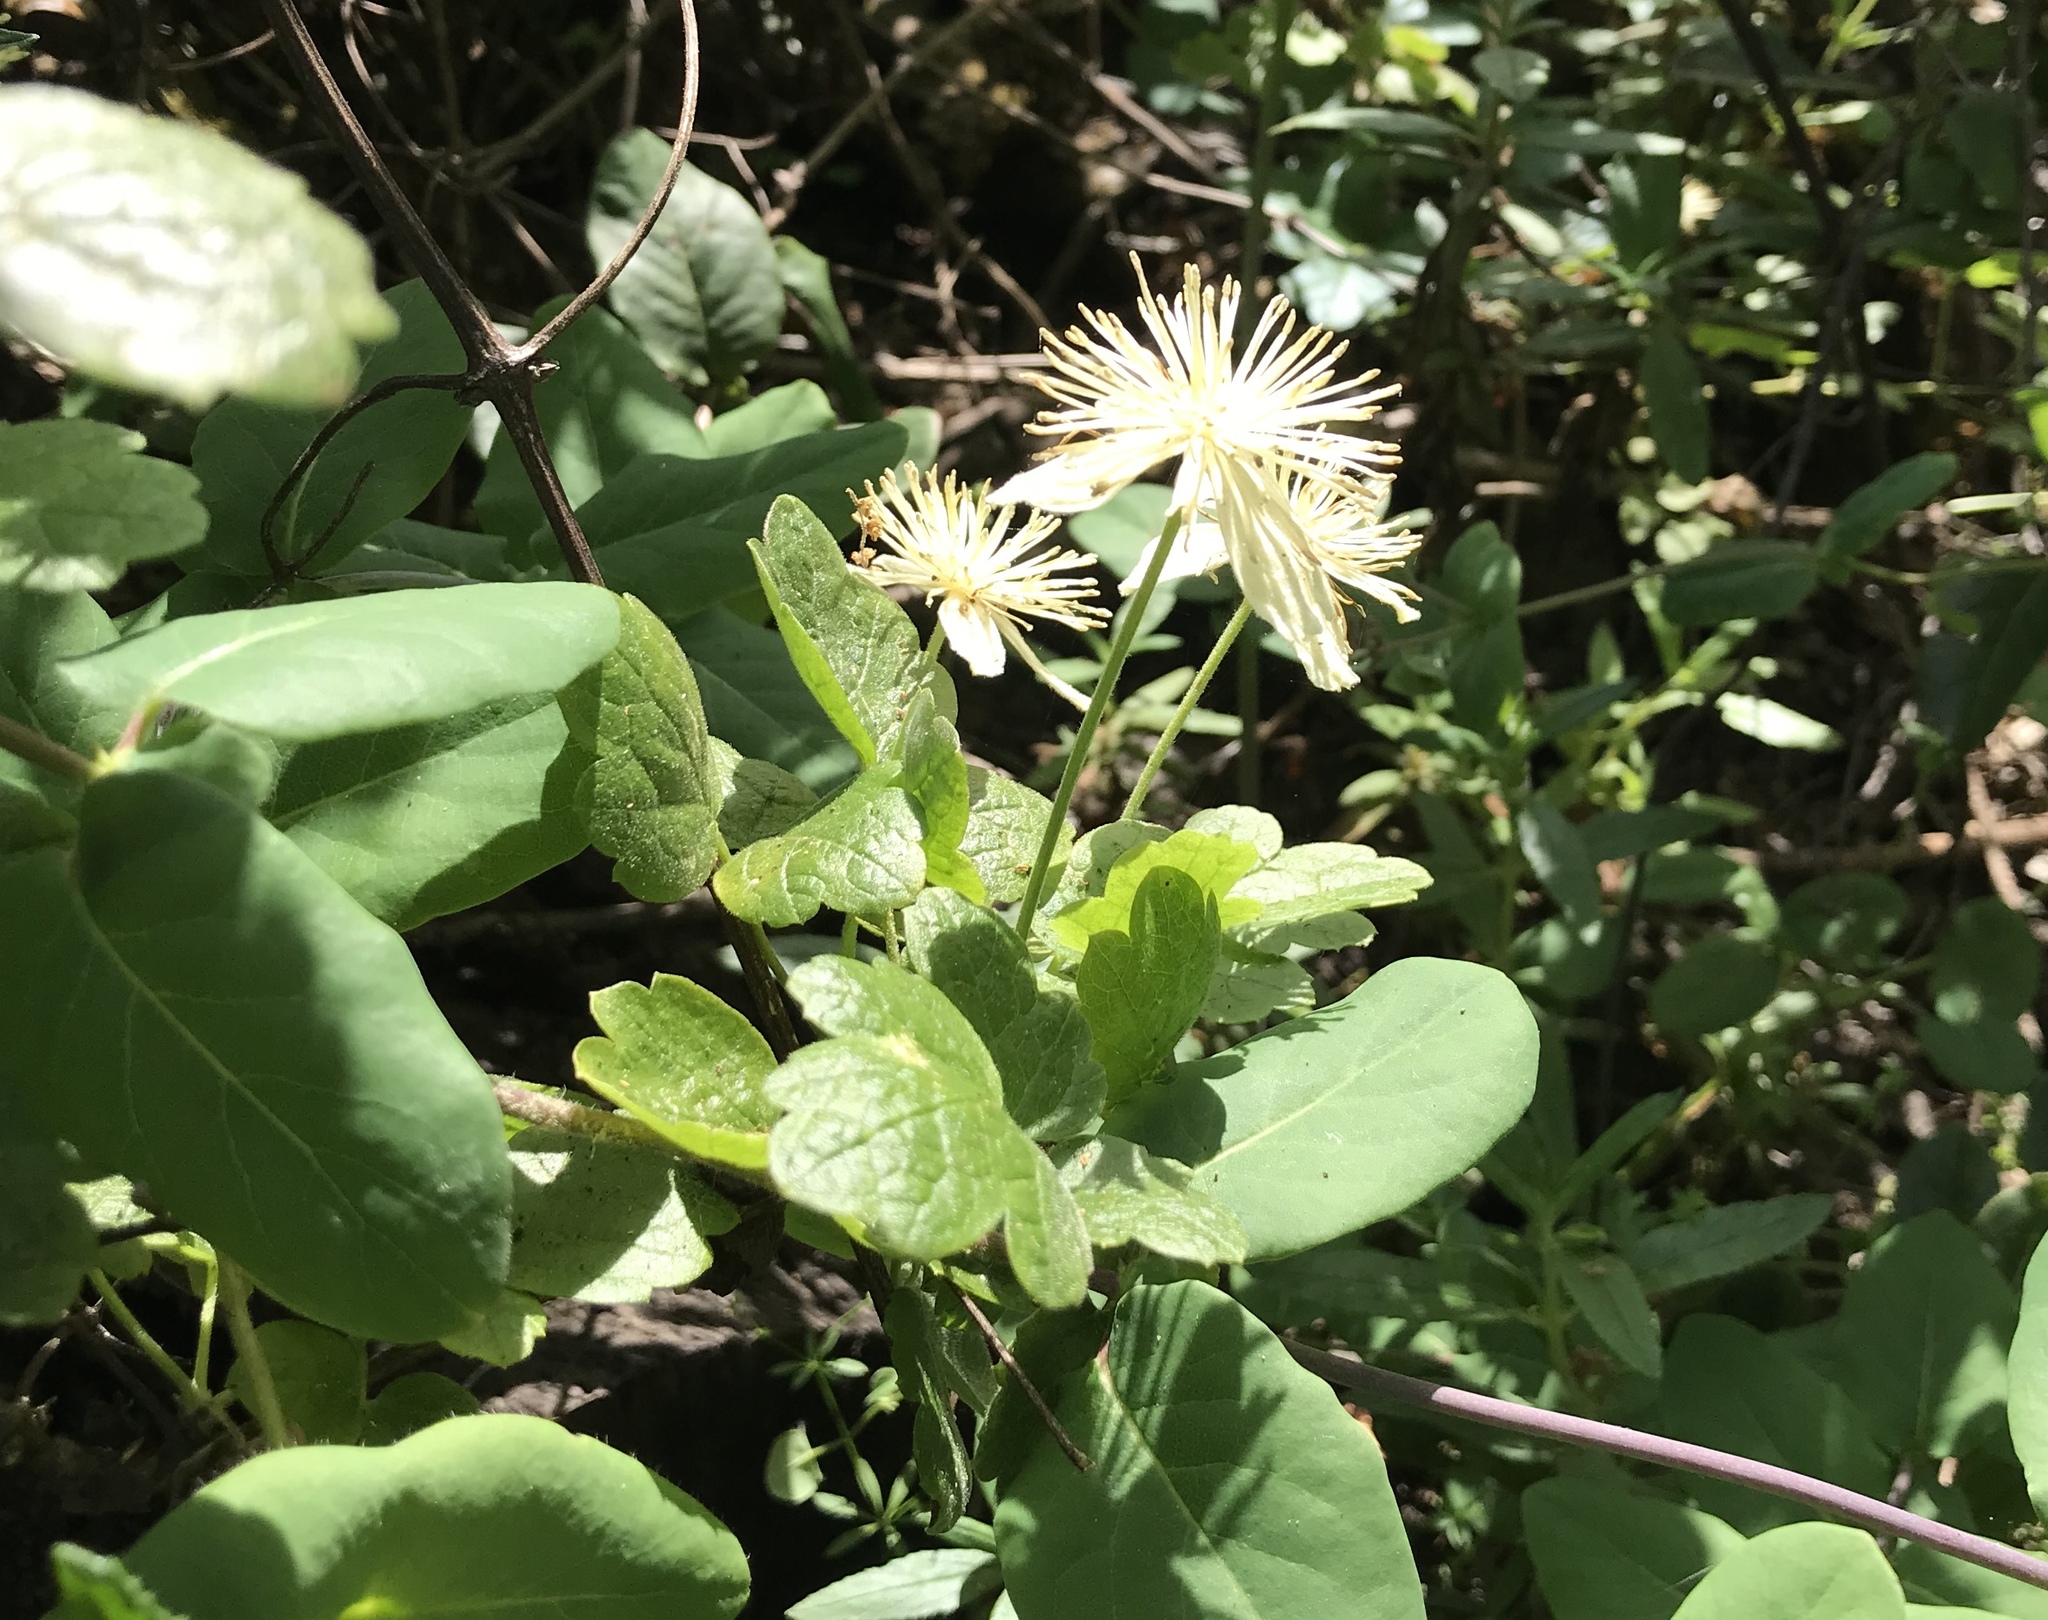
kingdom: Plantae
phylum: Tracheophyta
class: Magnoliopsida
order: Ranunculales
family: Ranunculaceae
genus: Clematis
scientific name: Clematis lasiantha
